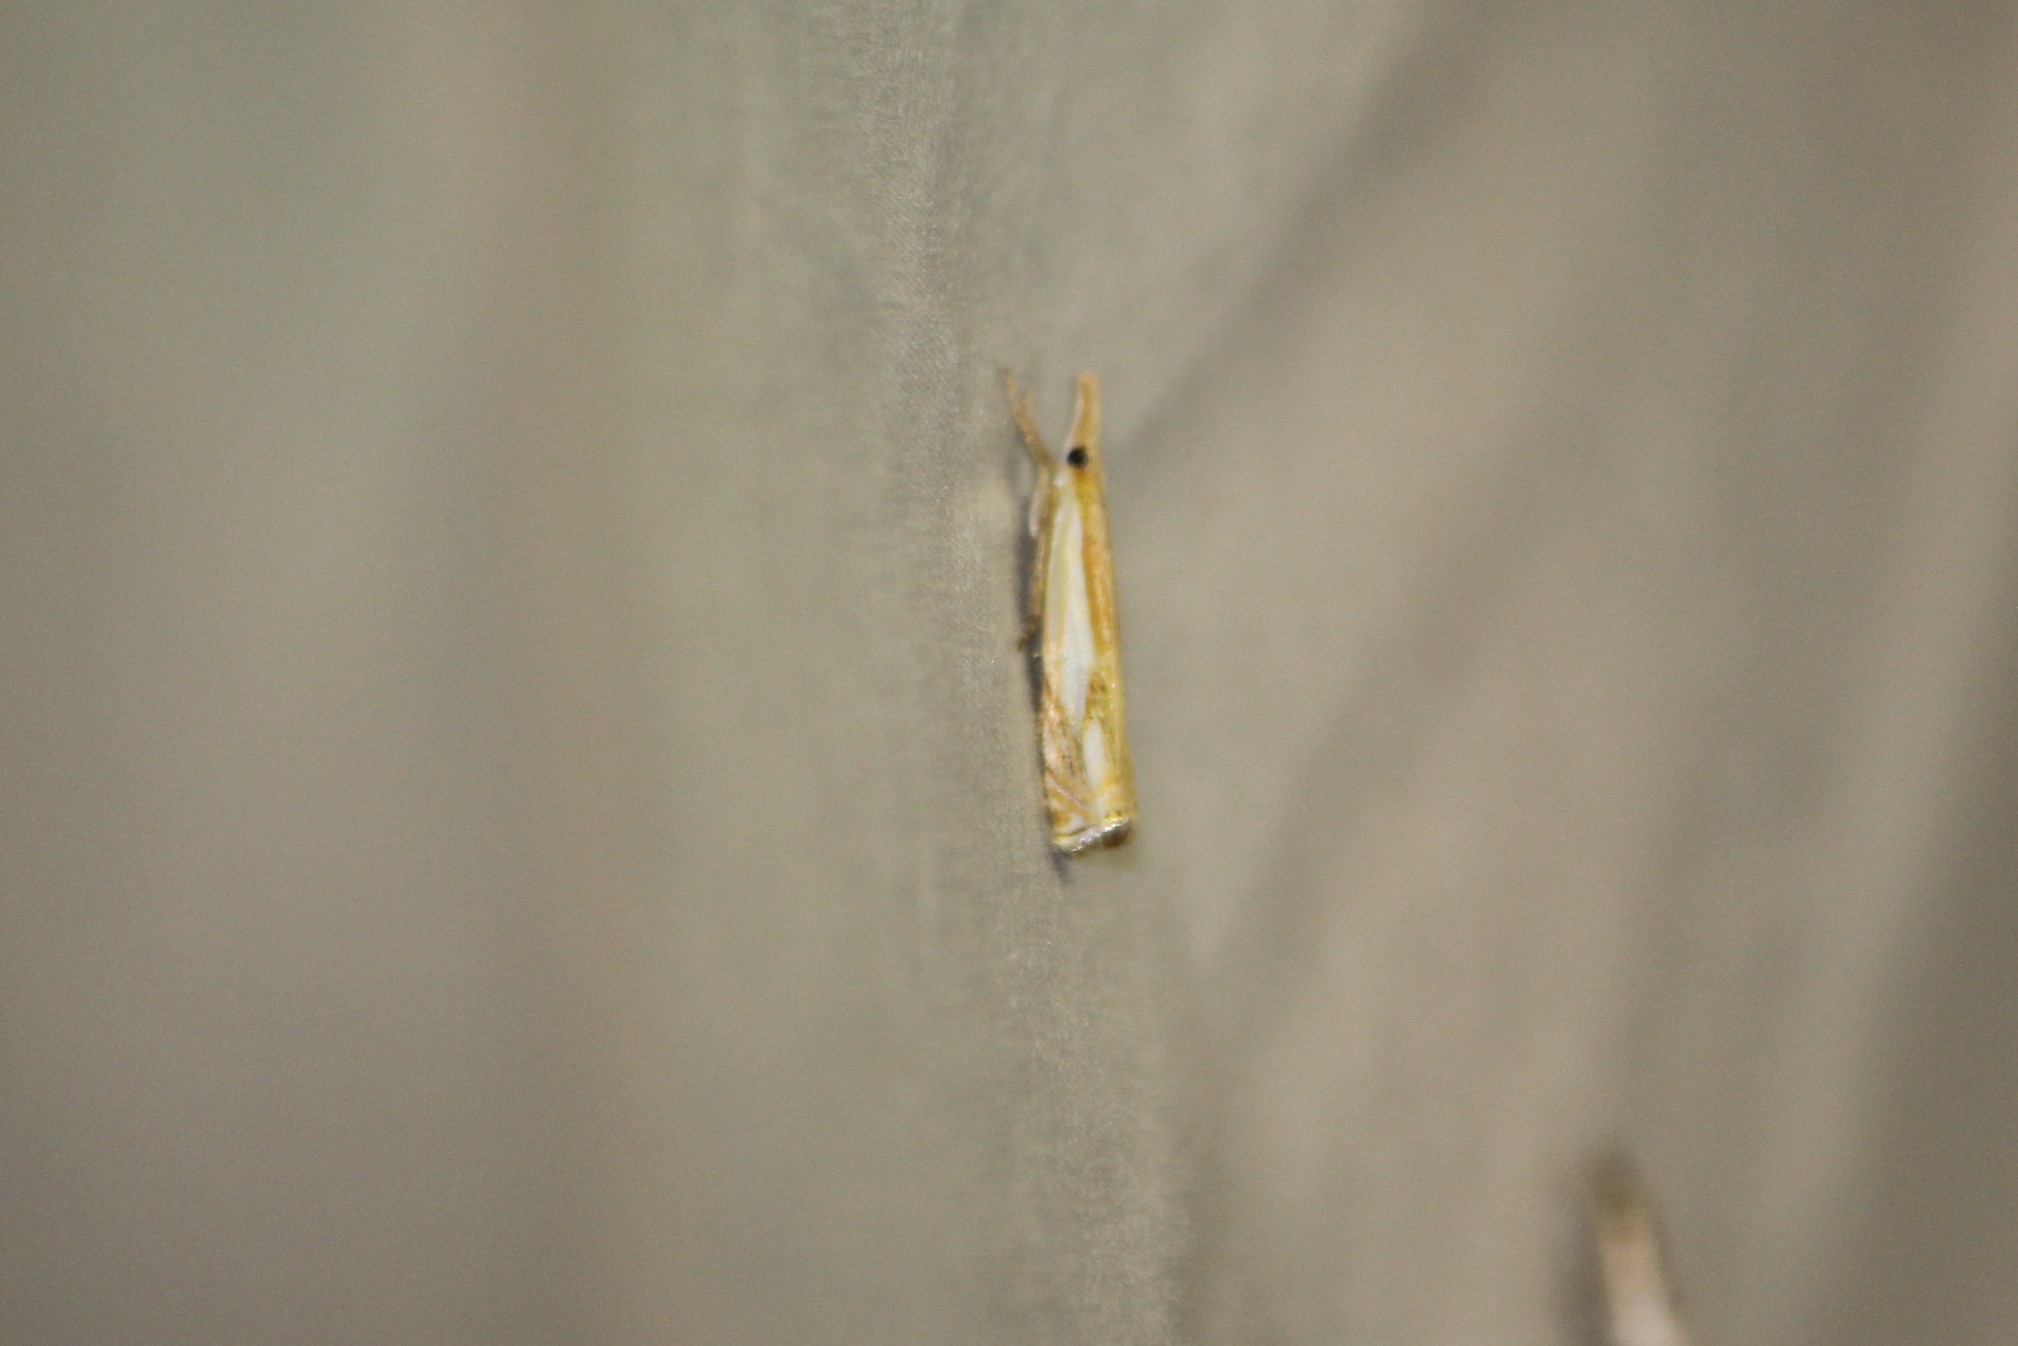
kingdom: Animalia
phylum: Arthropoda
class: Insecta
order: Lepidoptera
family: Crambidae
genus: Crambus
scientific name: Crambus agitatellus
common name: Double-banded grass-veneer
